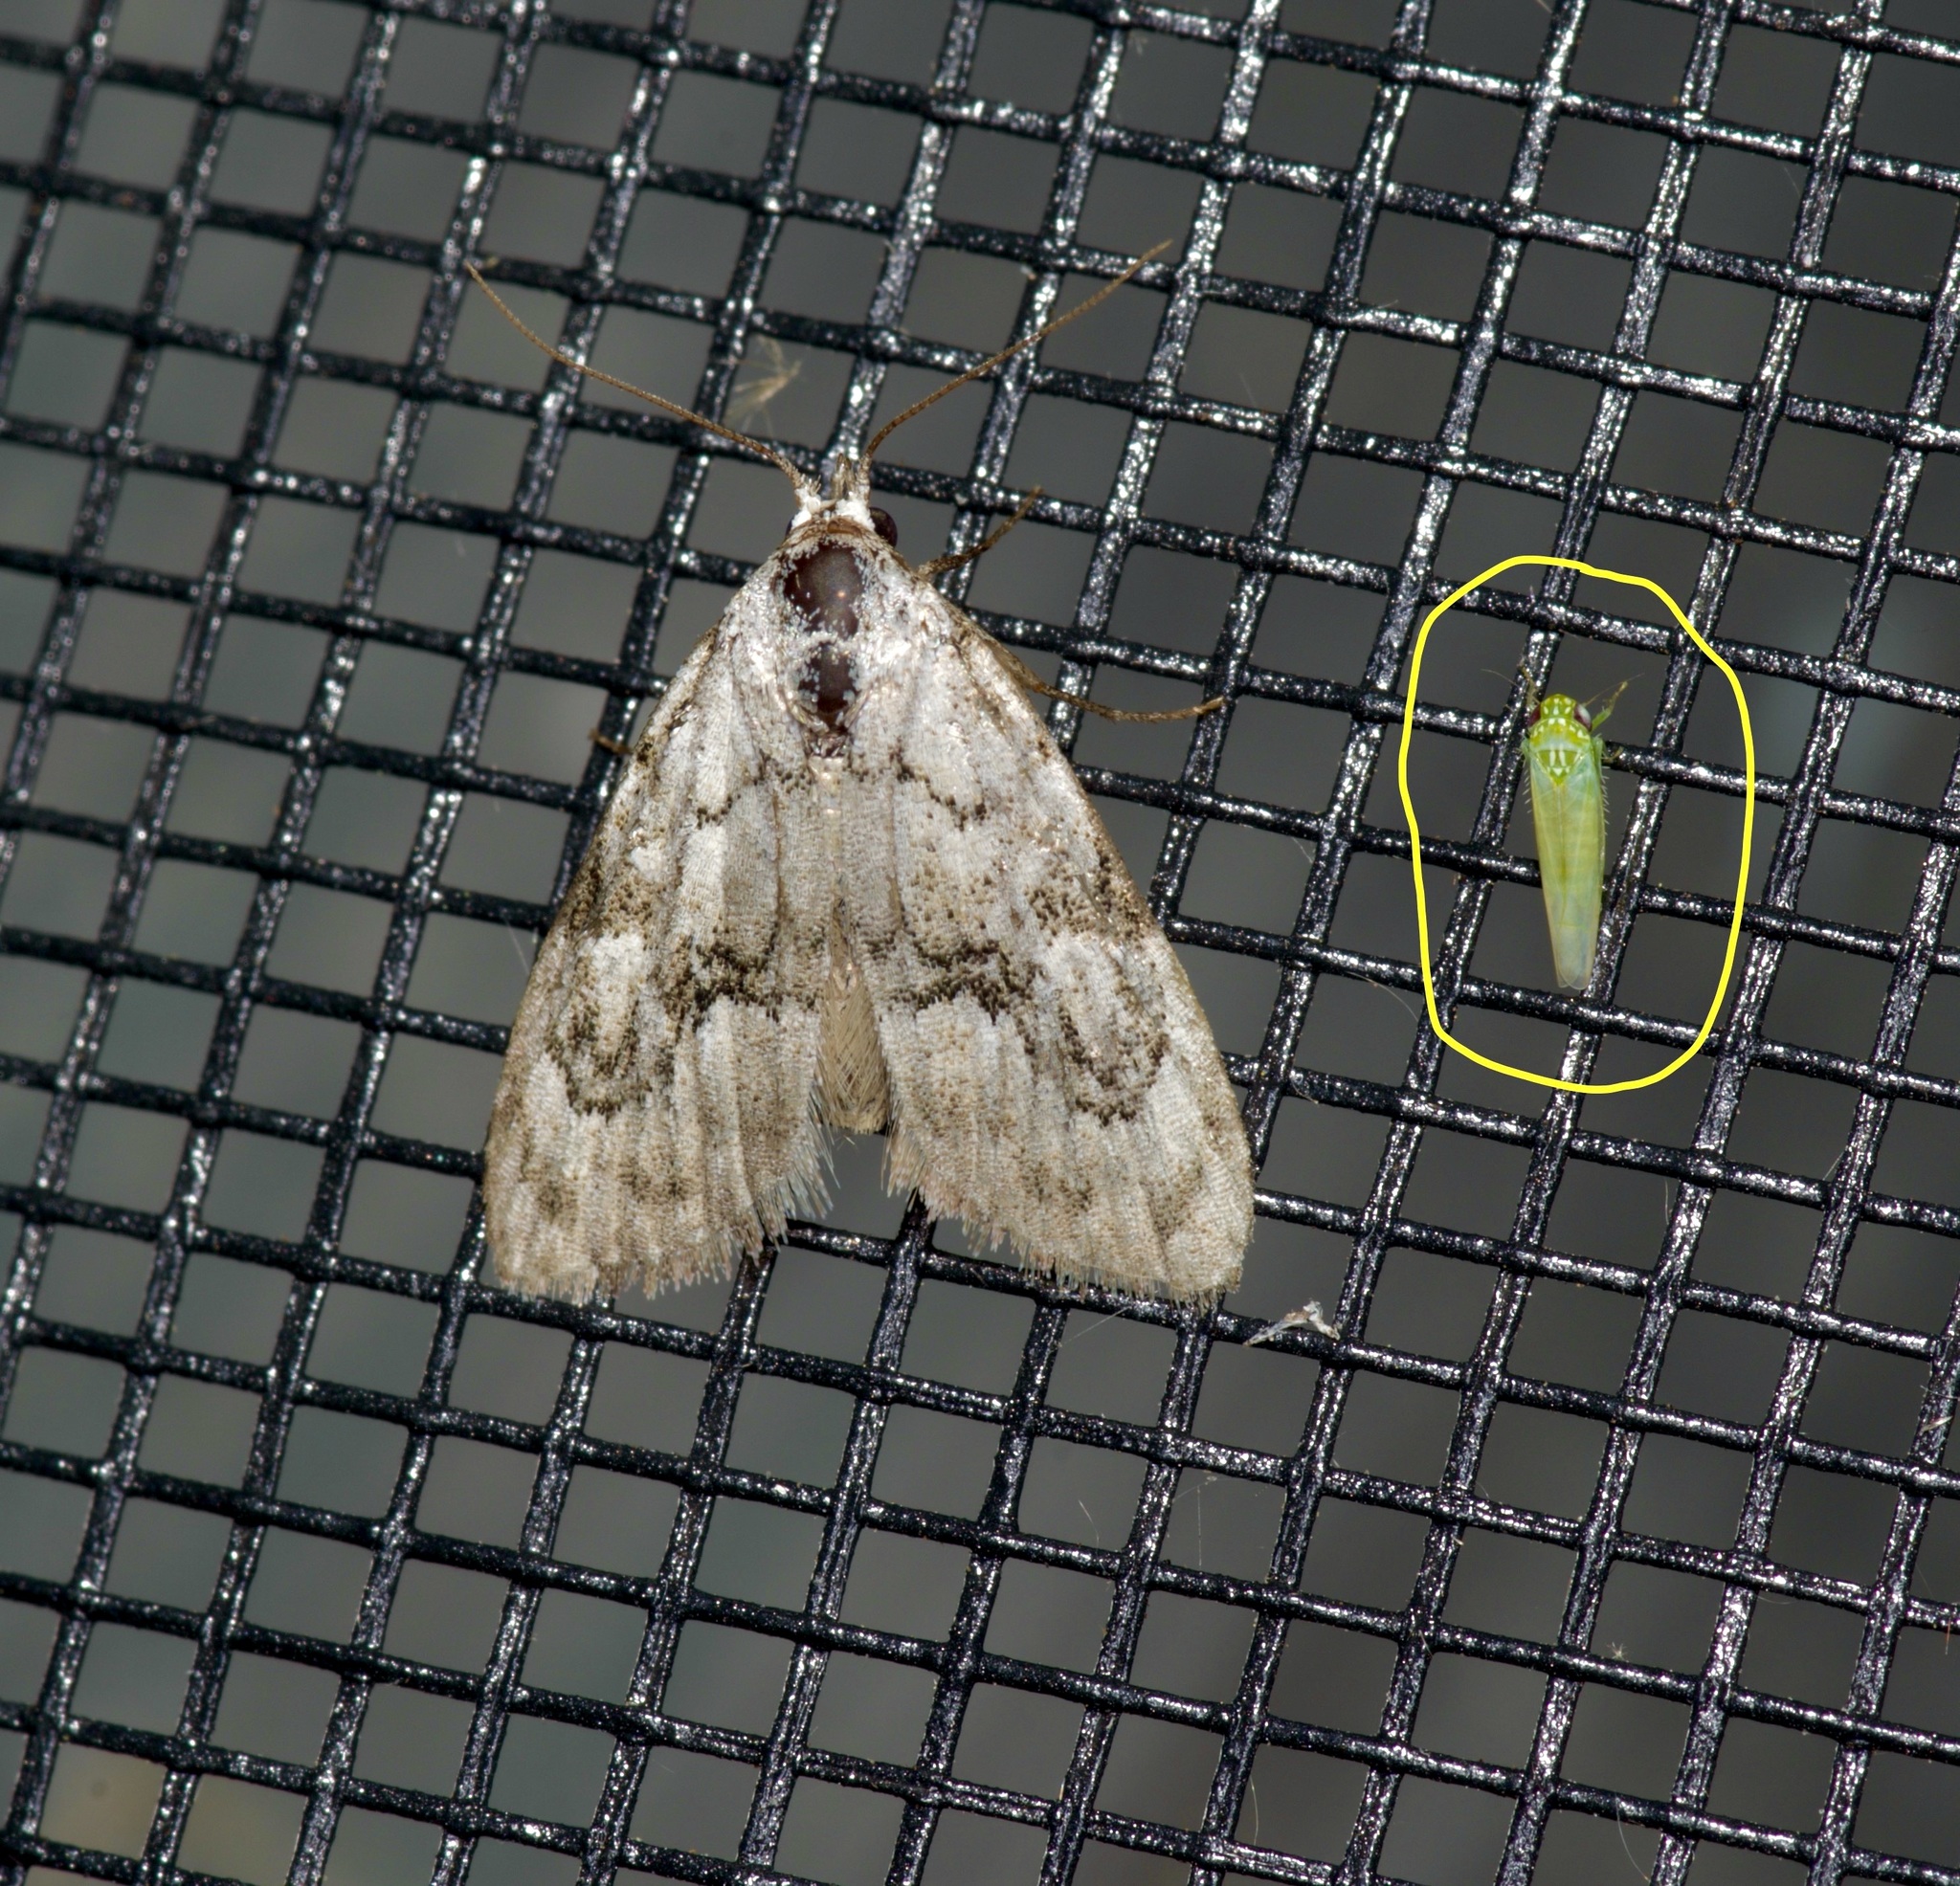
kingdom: Animalia
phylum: Arthropoda
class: Insecta
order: Hemiptera
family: Cicadellidae
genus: Empoasca
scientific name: Empoasca fabae
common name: Potato leafhopper
